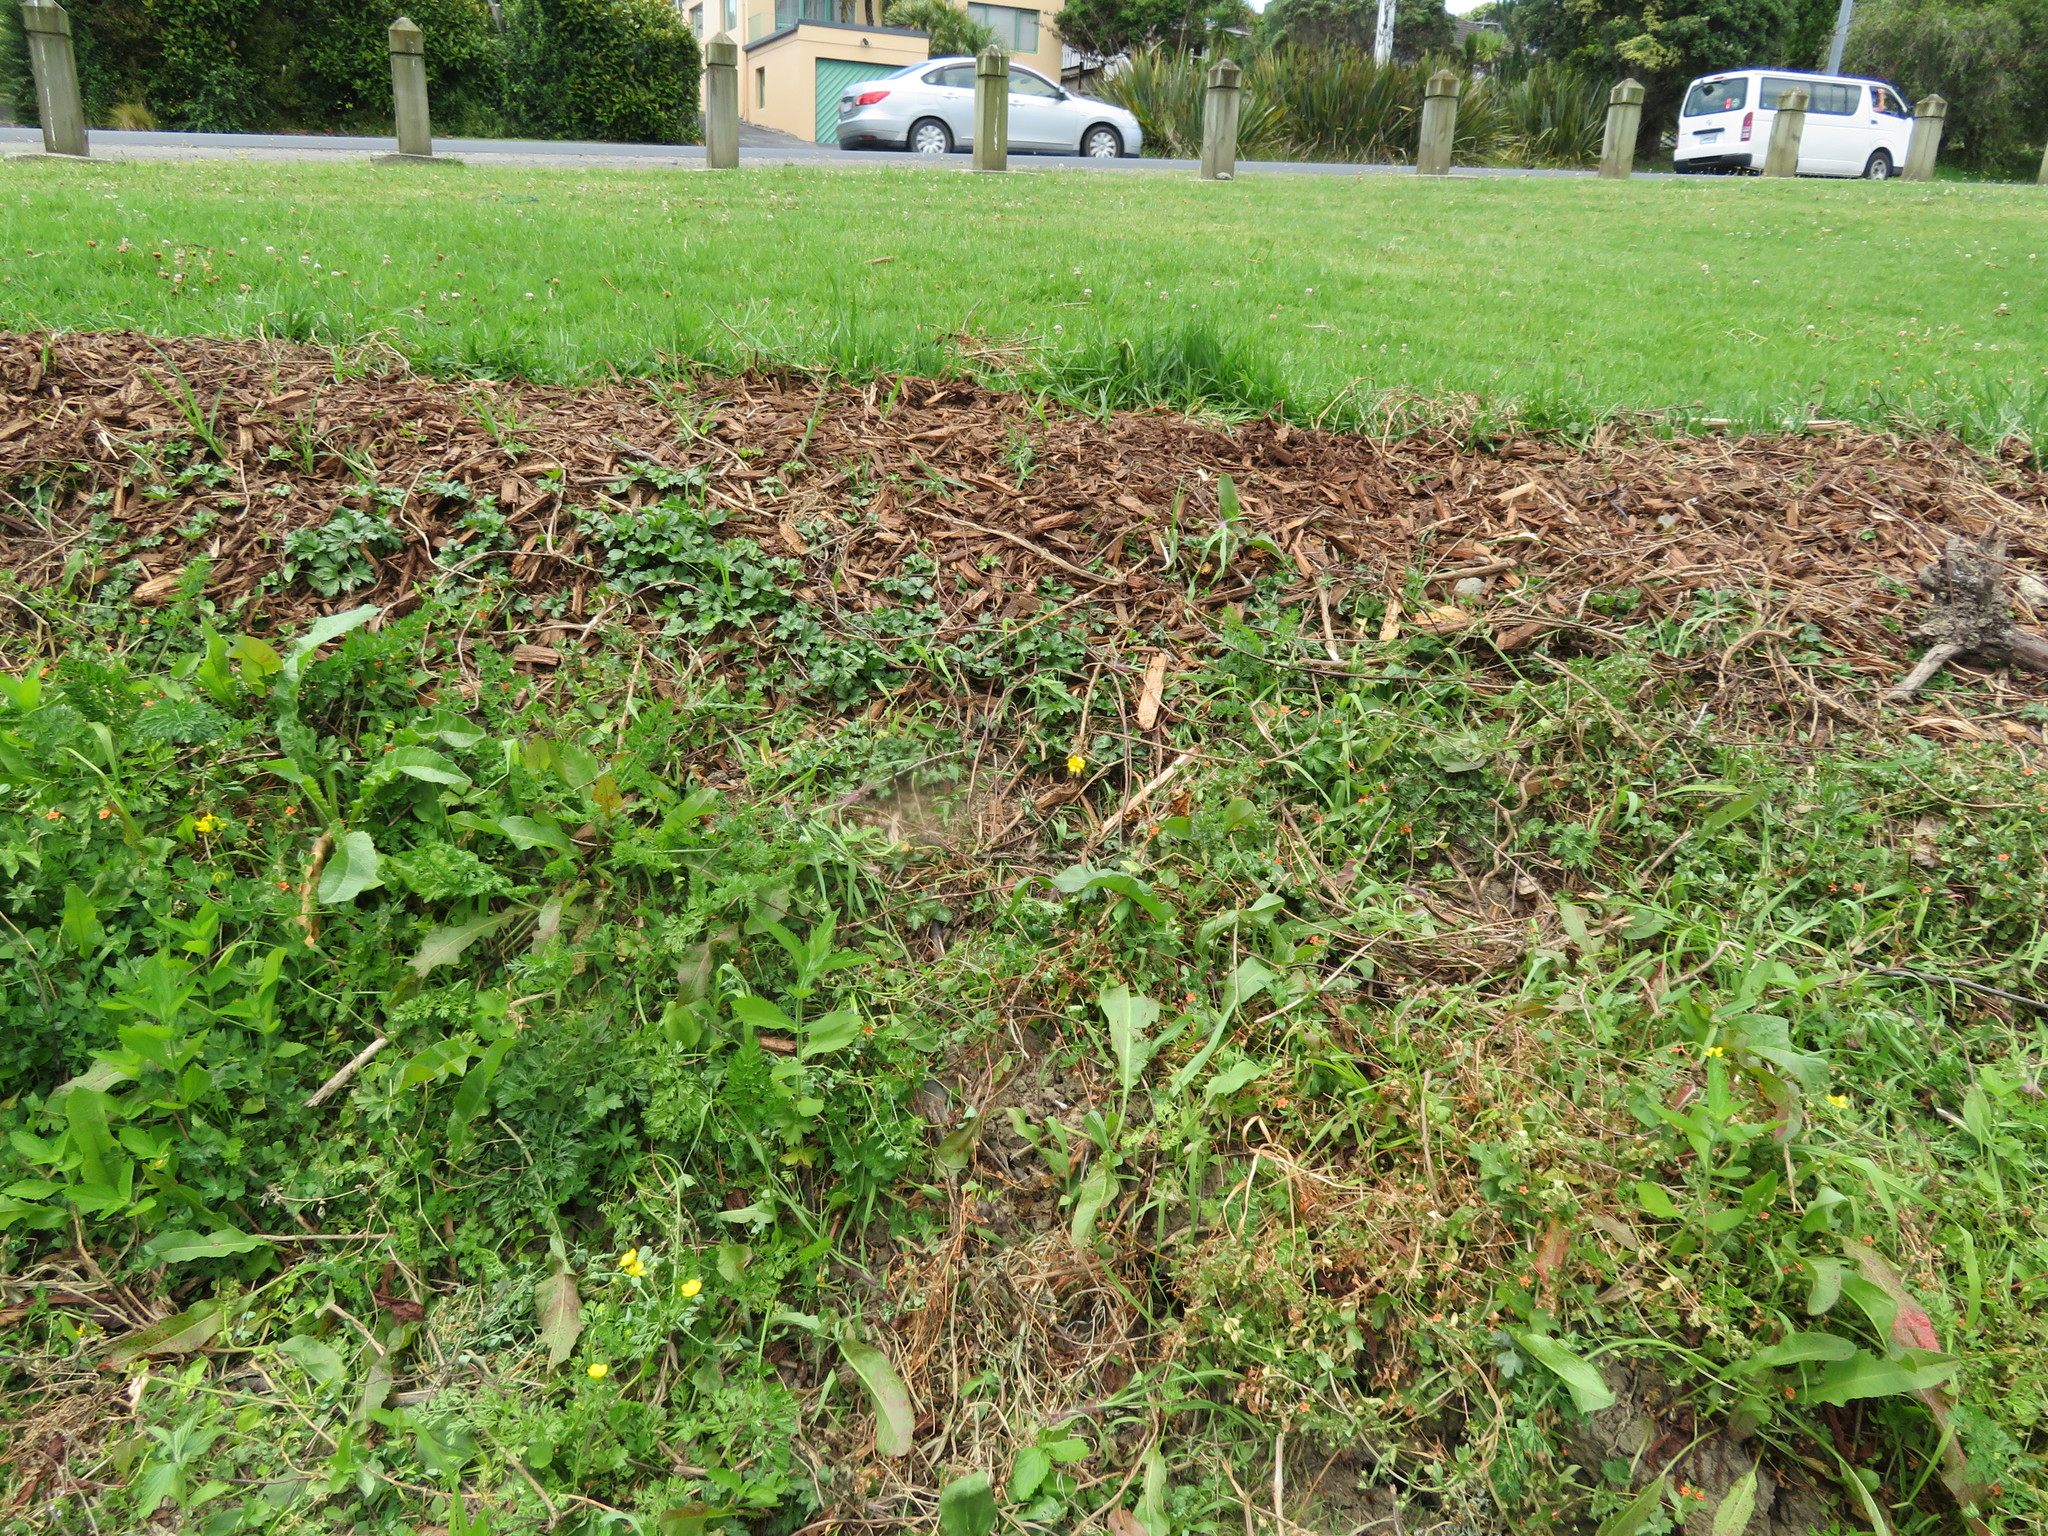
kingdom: Plantae
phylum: Tracheophyta
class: Magnoliopsida
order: Ranunculales
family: Ranunculaceae
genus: Ranunculus
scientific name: Ranunculus repens
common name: Creeping buttercup
